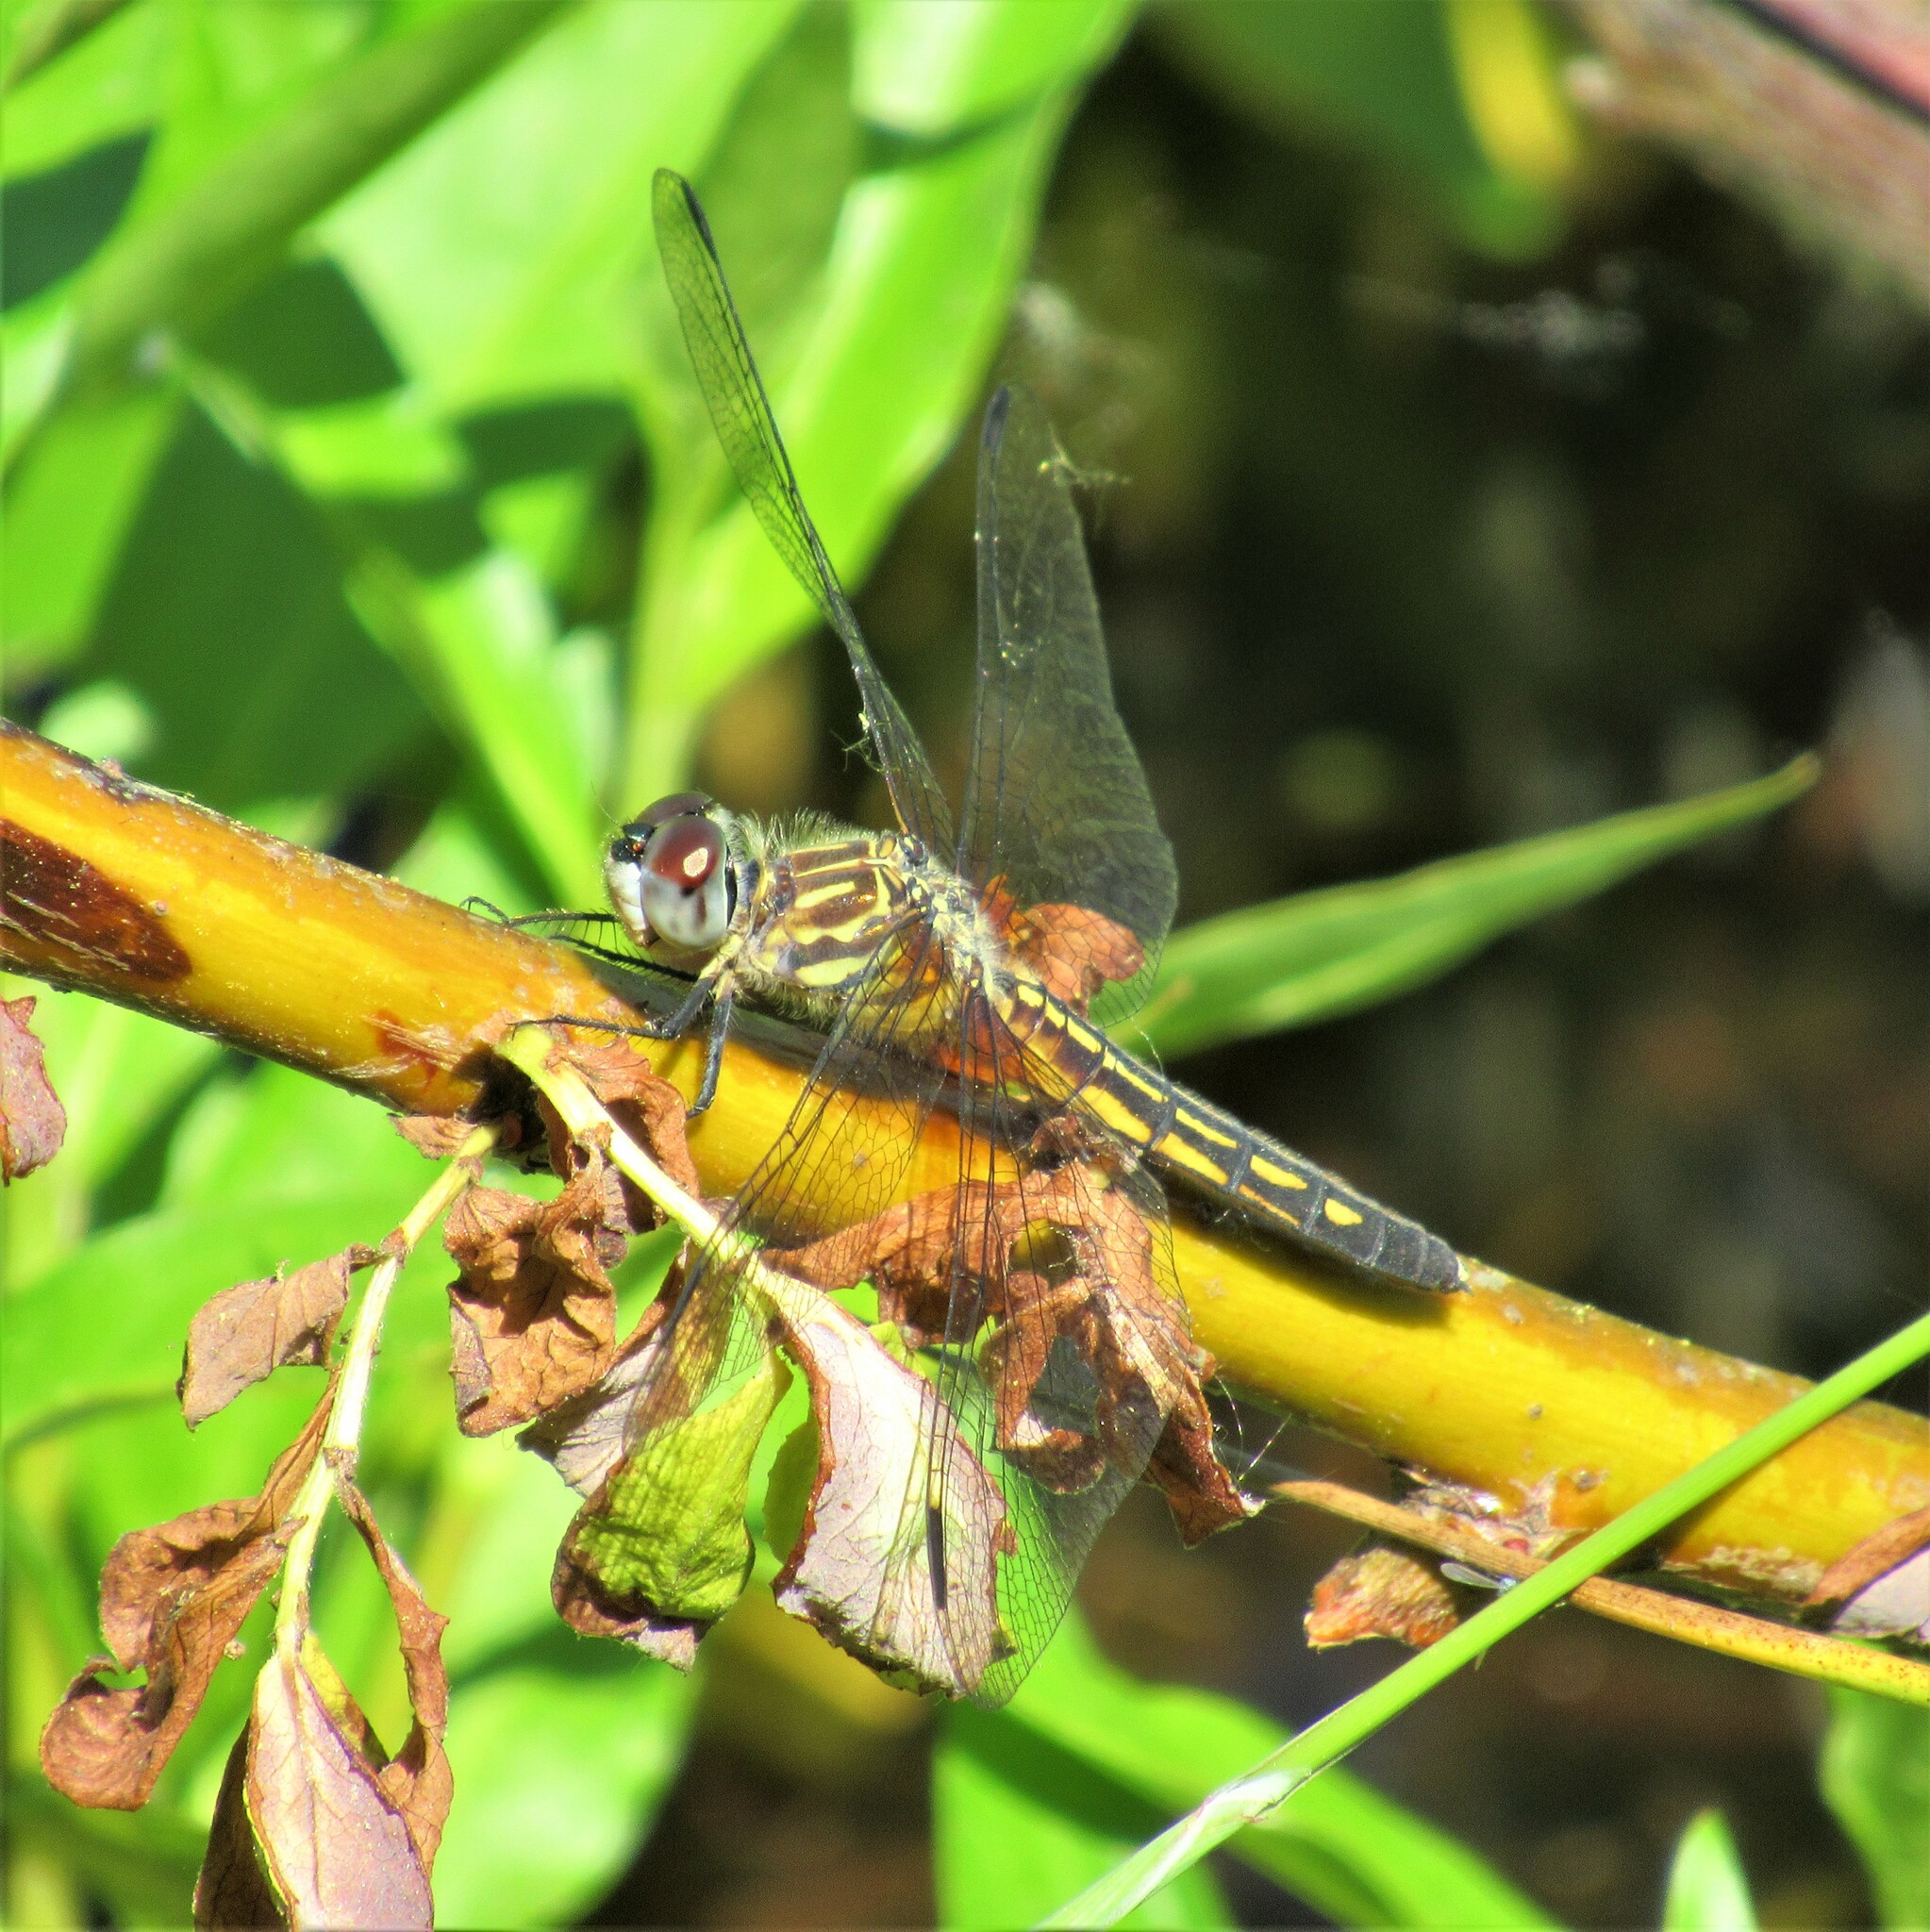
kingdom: Animalia
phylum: Arthropoda
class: Insecta
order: Odonata
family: Libellulidae
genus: Pachydiplax
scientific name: Pachydiplax longipennis
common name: Blue dasher
